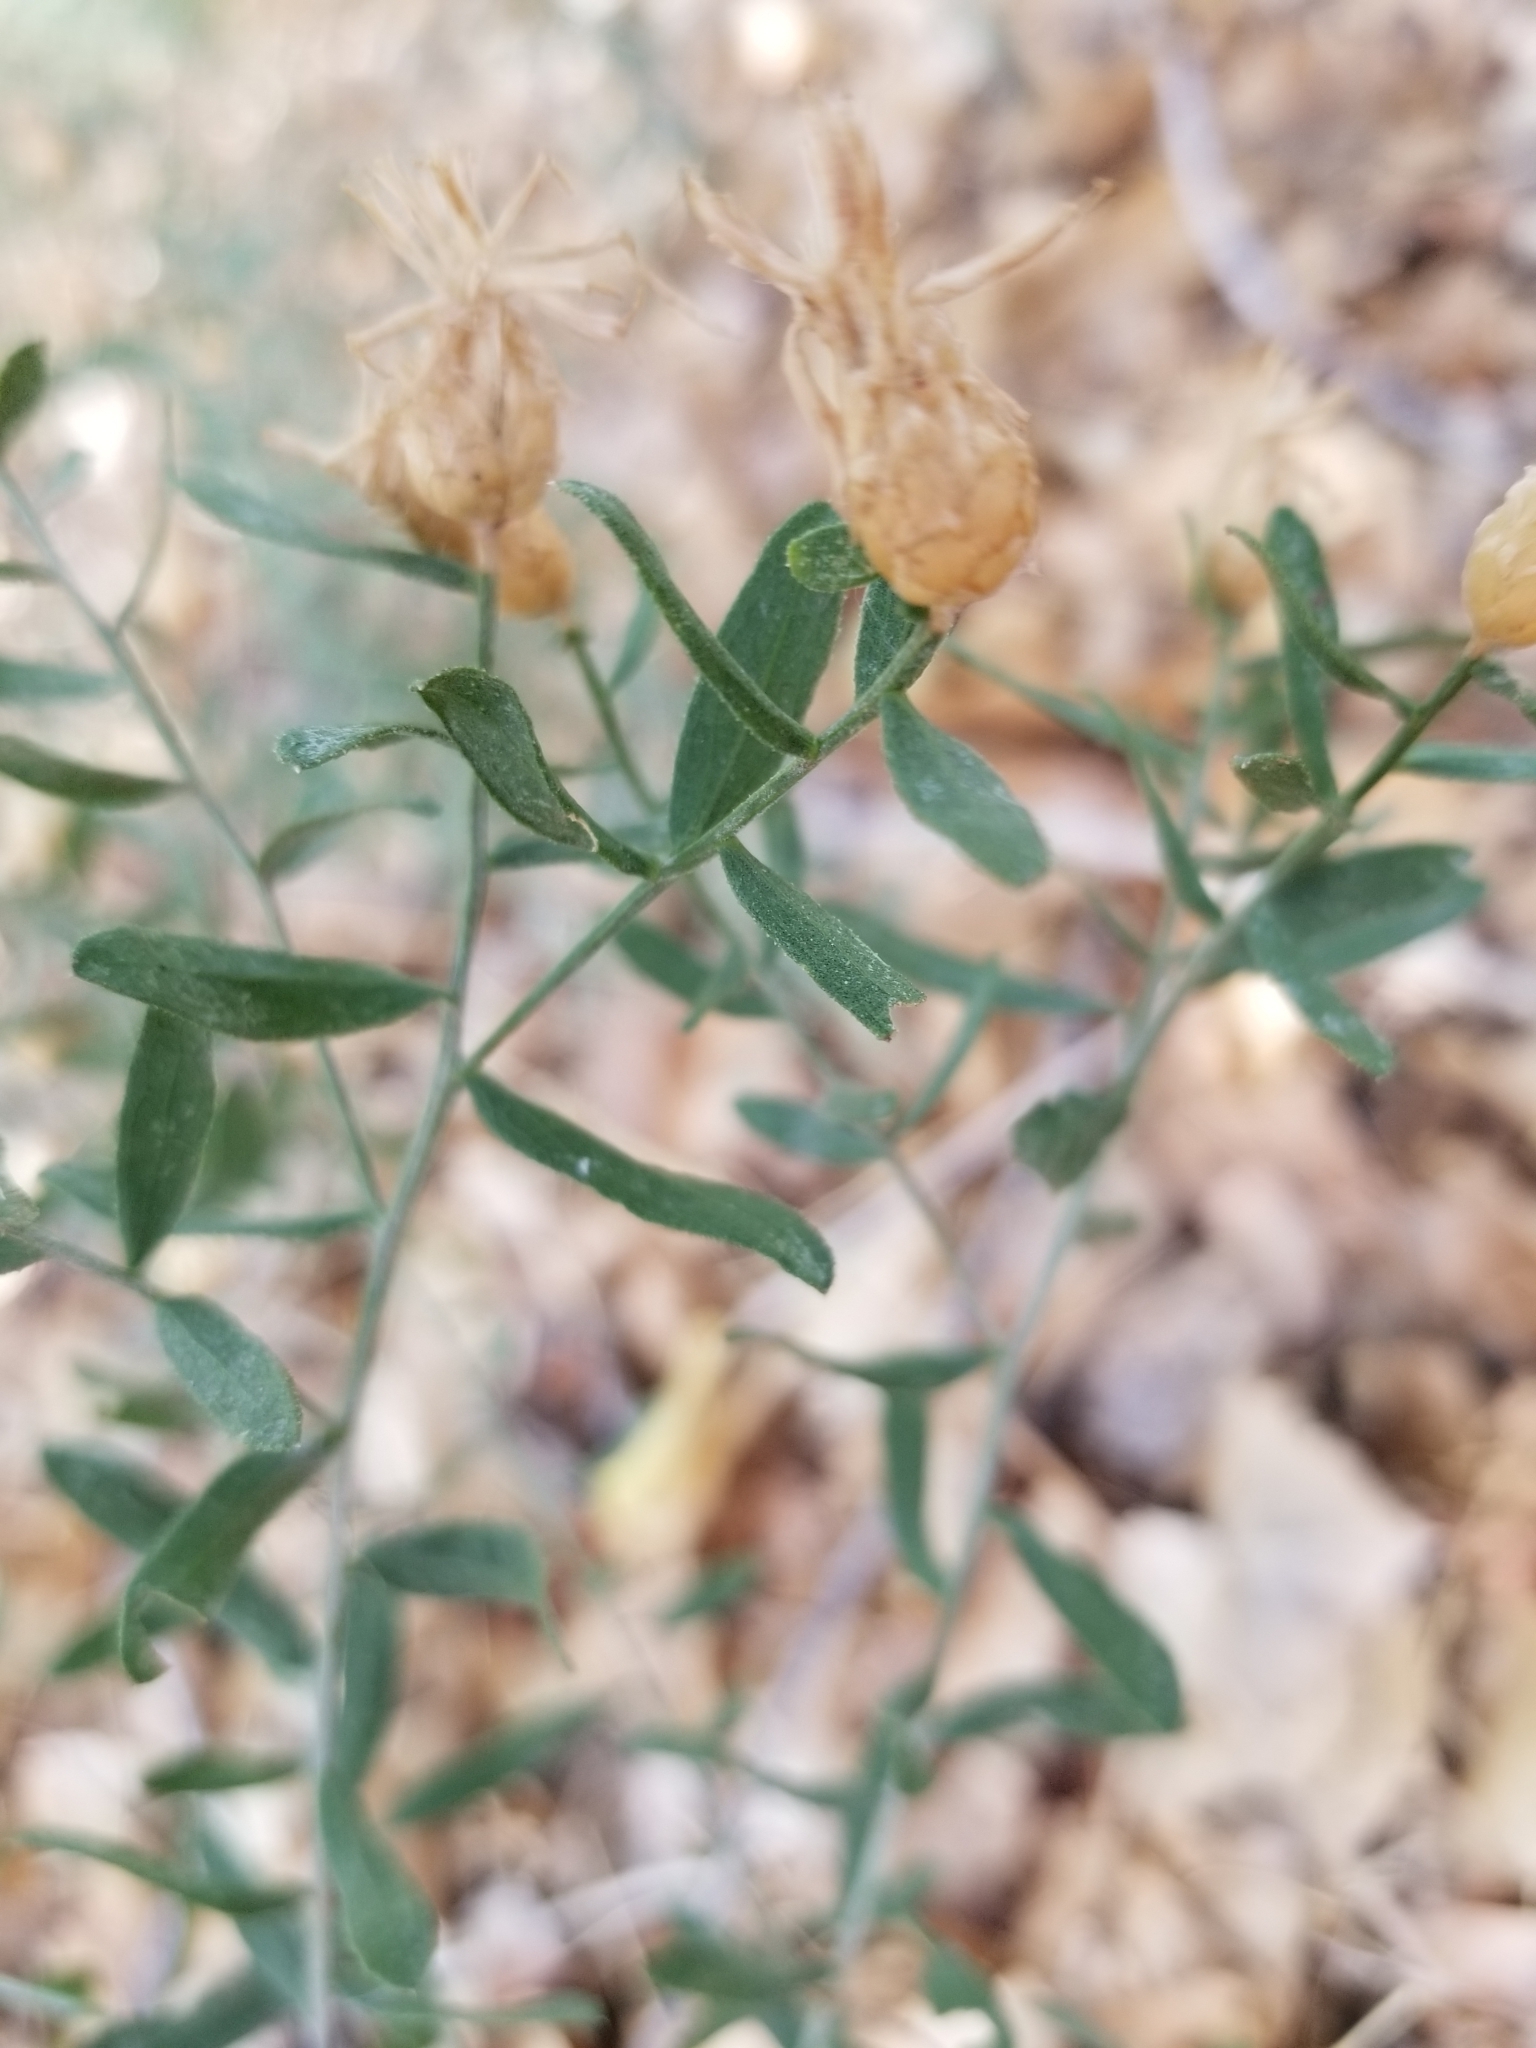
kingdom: Plantae
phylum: Tracheophyta
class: Magnoliopsida
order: Asterales
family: Asteraceae
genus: Baccharis
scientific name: Baccharis salicina
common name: Willow baccharis
